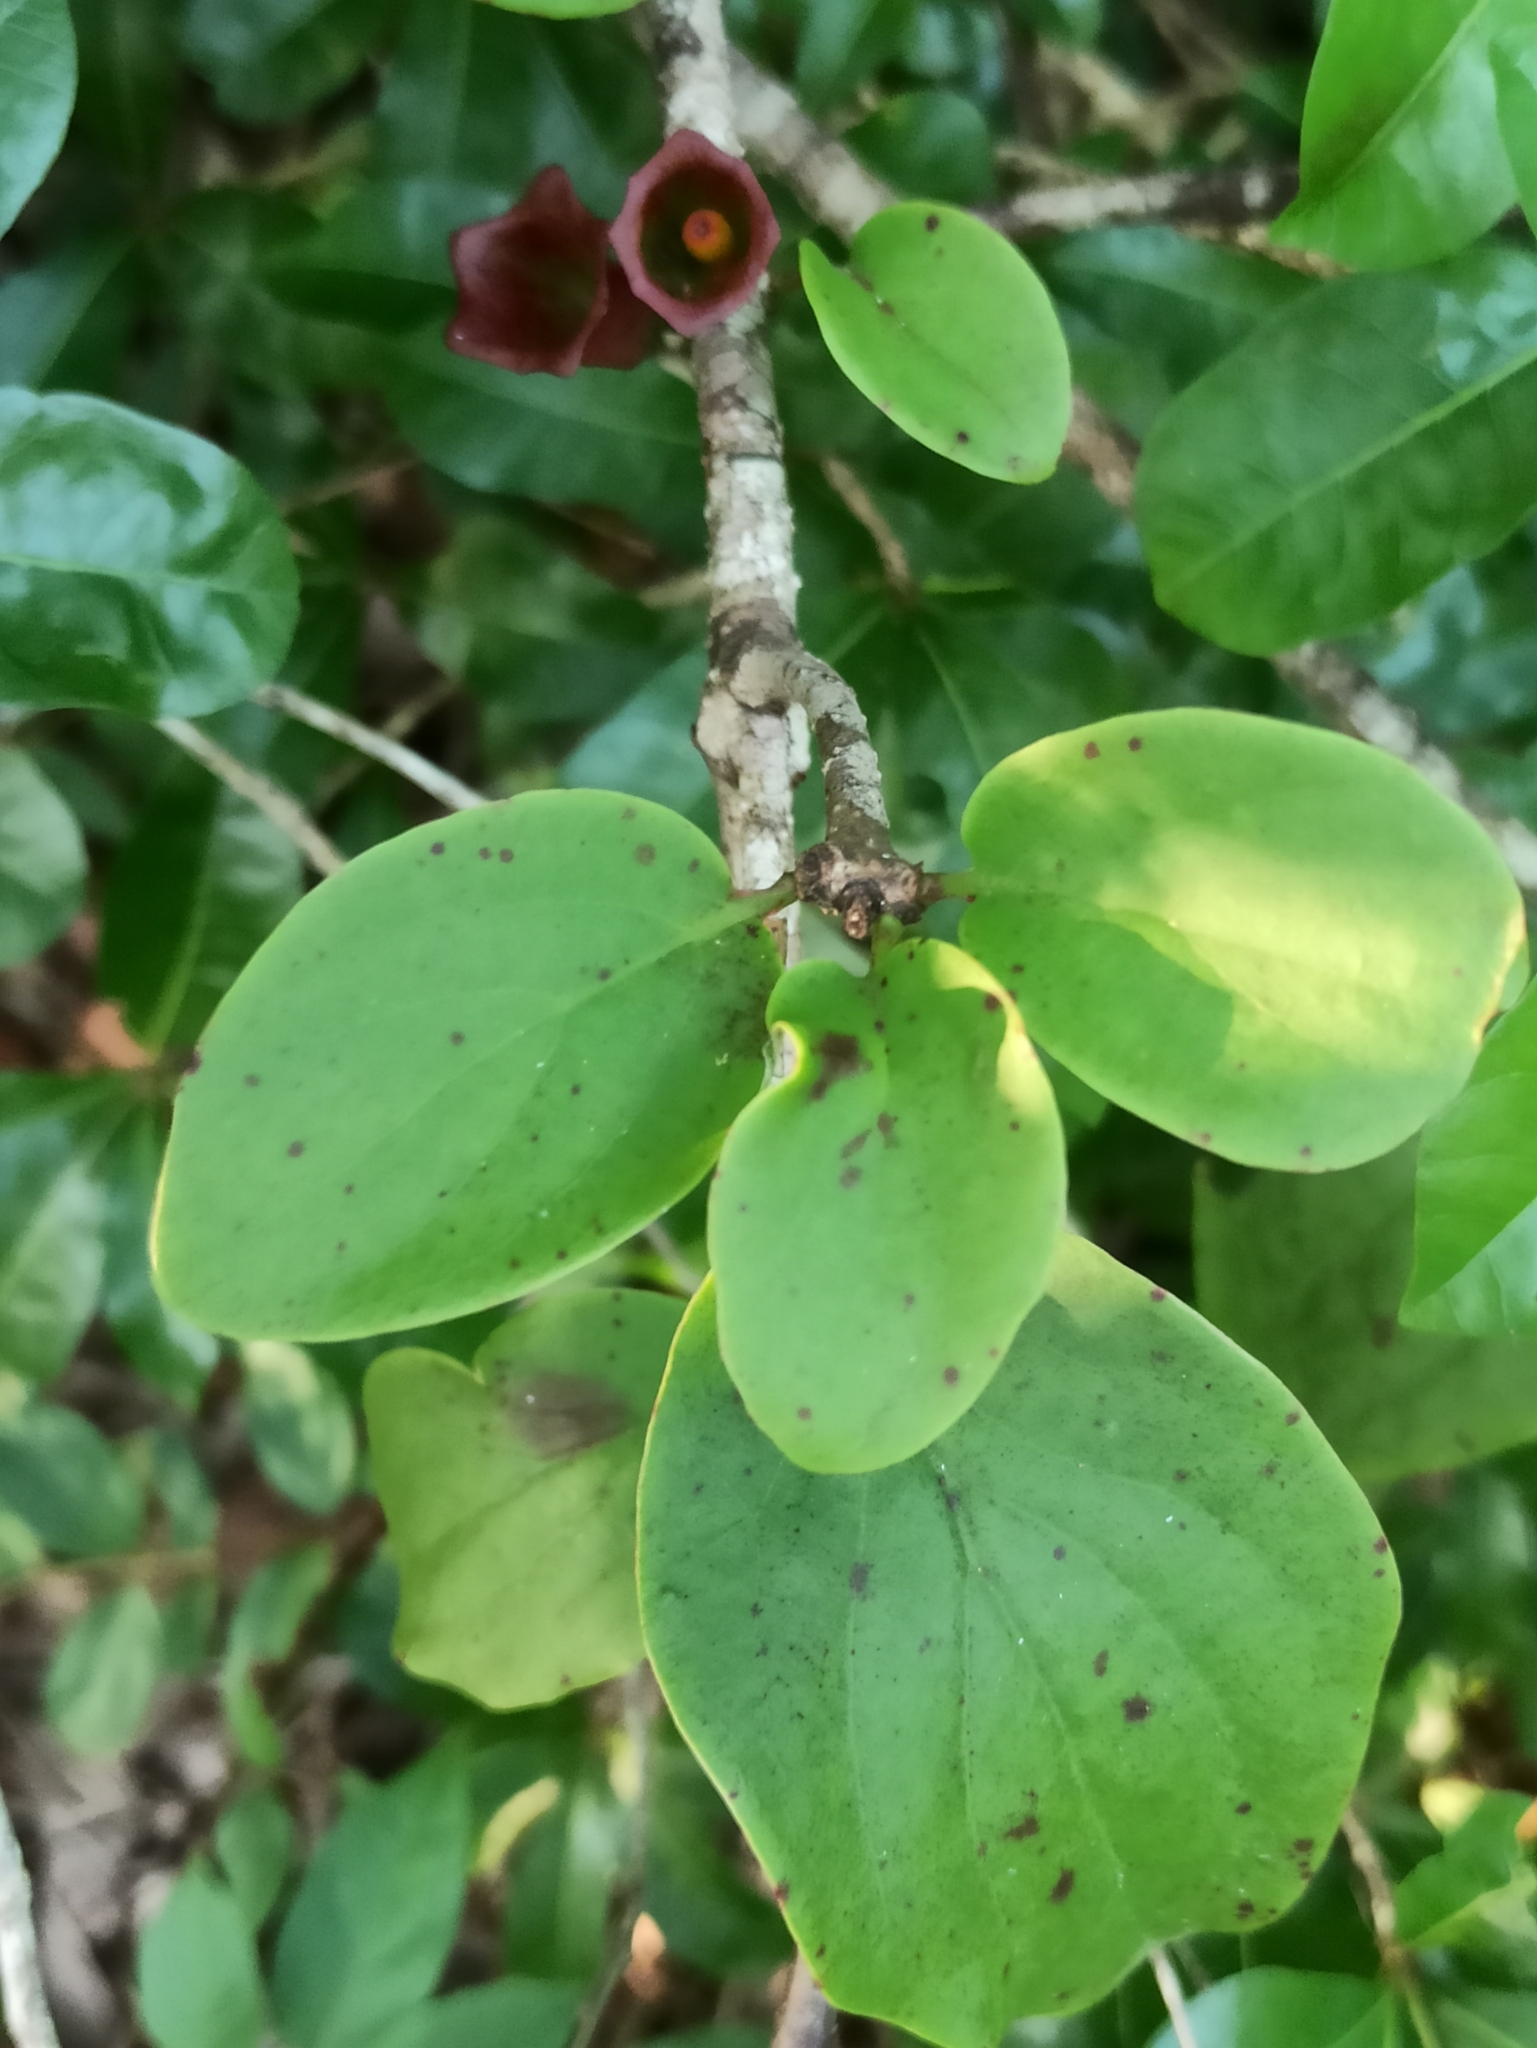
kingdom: Plantae
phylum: Tracheophyta
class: Magnoliopsida
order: Santalales
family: Loranthaceae
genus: Tolypanthus
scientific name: Tolypanthus lagenifer
